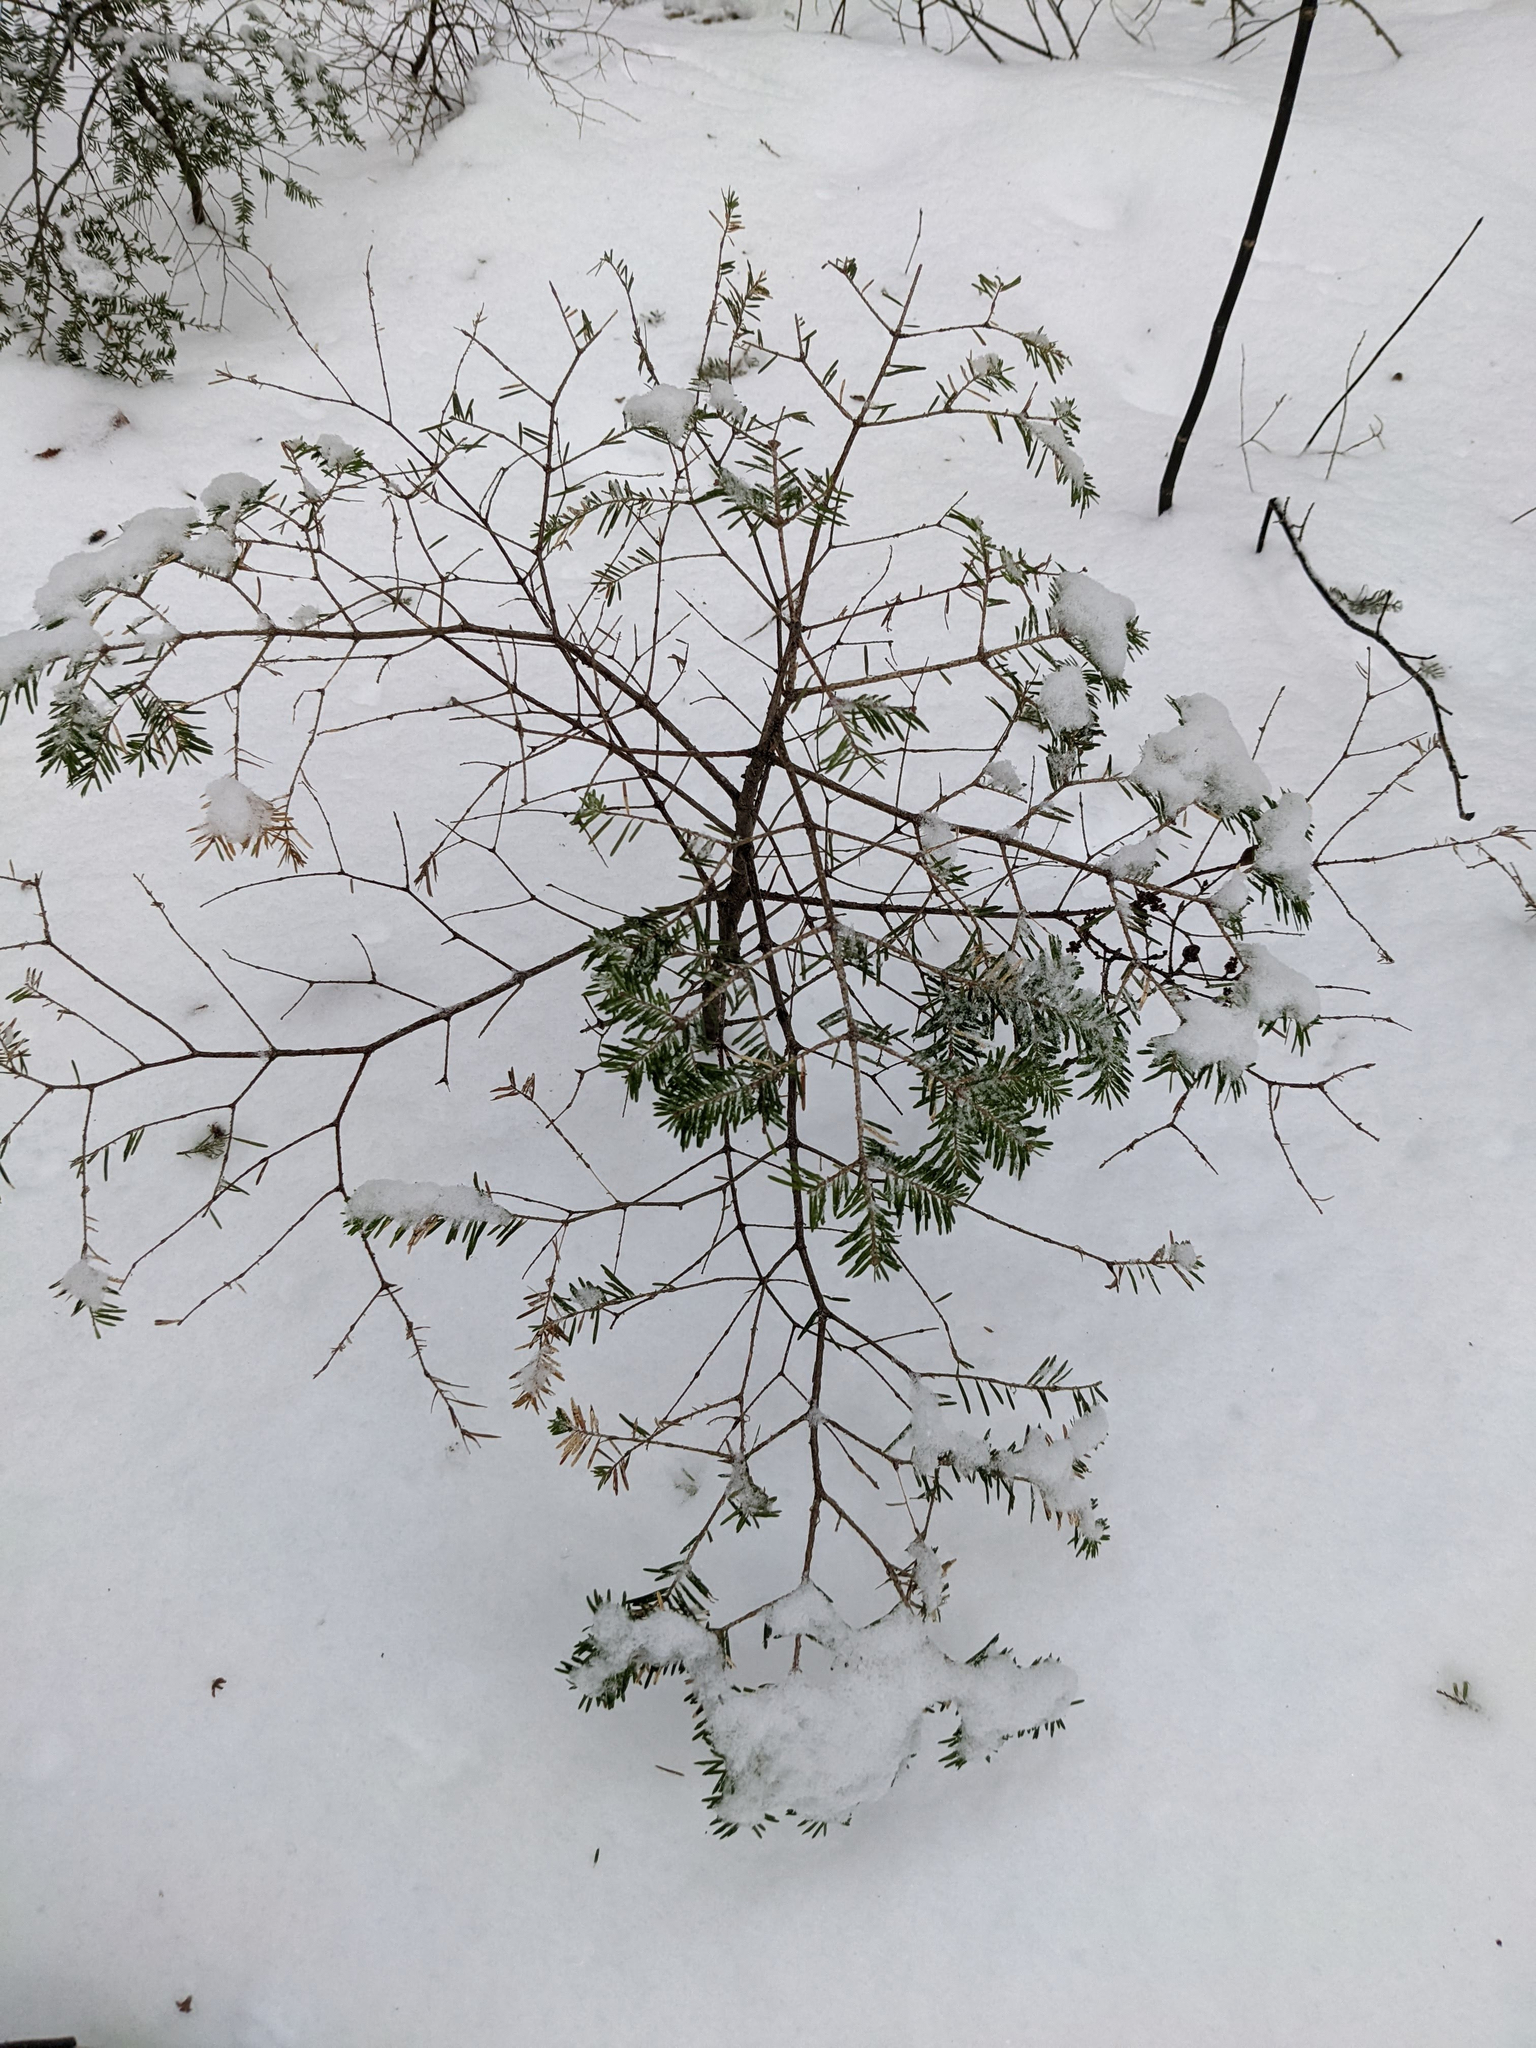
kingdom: Plantae
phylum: Tracheophyta
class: Pinopsida
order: Pinales
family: Pinaceae
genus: Abies
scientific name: Abies balsamea
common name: Balsam fir
